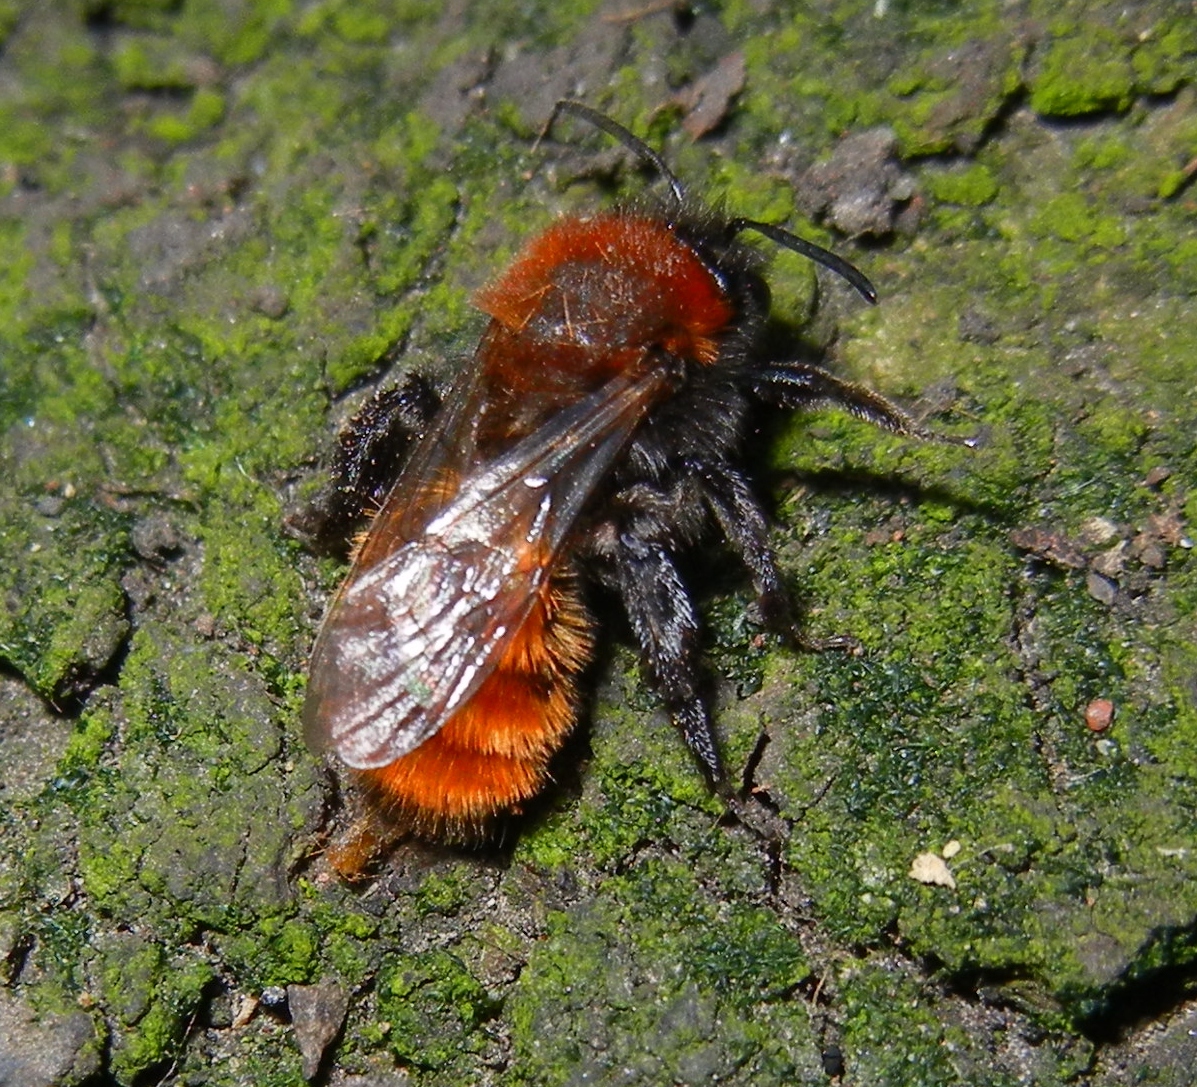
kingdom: Animalia
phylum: Arthropoda
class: Insecta
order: Hymenoptera
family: Andrenidae
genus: Andrena
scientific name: Andrena fulva
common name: Tawny mining bee
